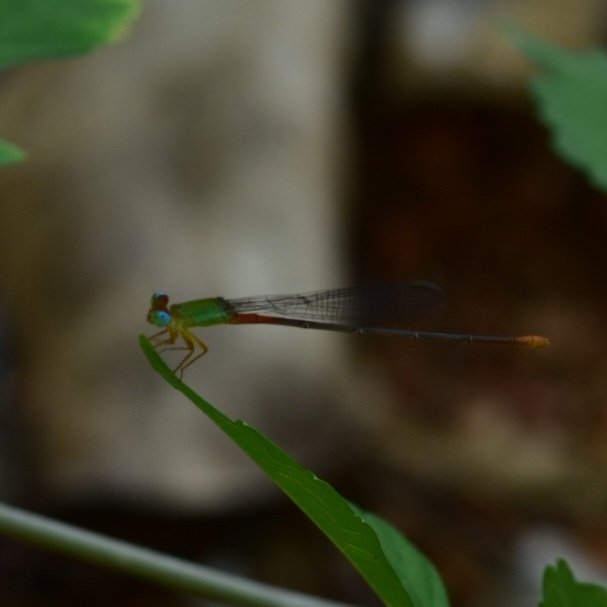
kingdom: Animalia
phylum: Arthropoda
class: Insecta
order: Odonata
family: Coenagrionidae
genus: Ceriagrion
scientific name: Ceriagrion cerinorubellum
